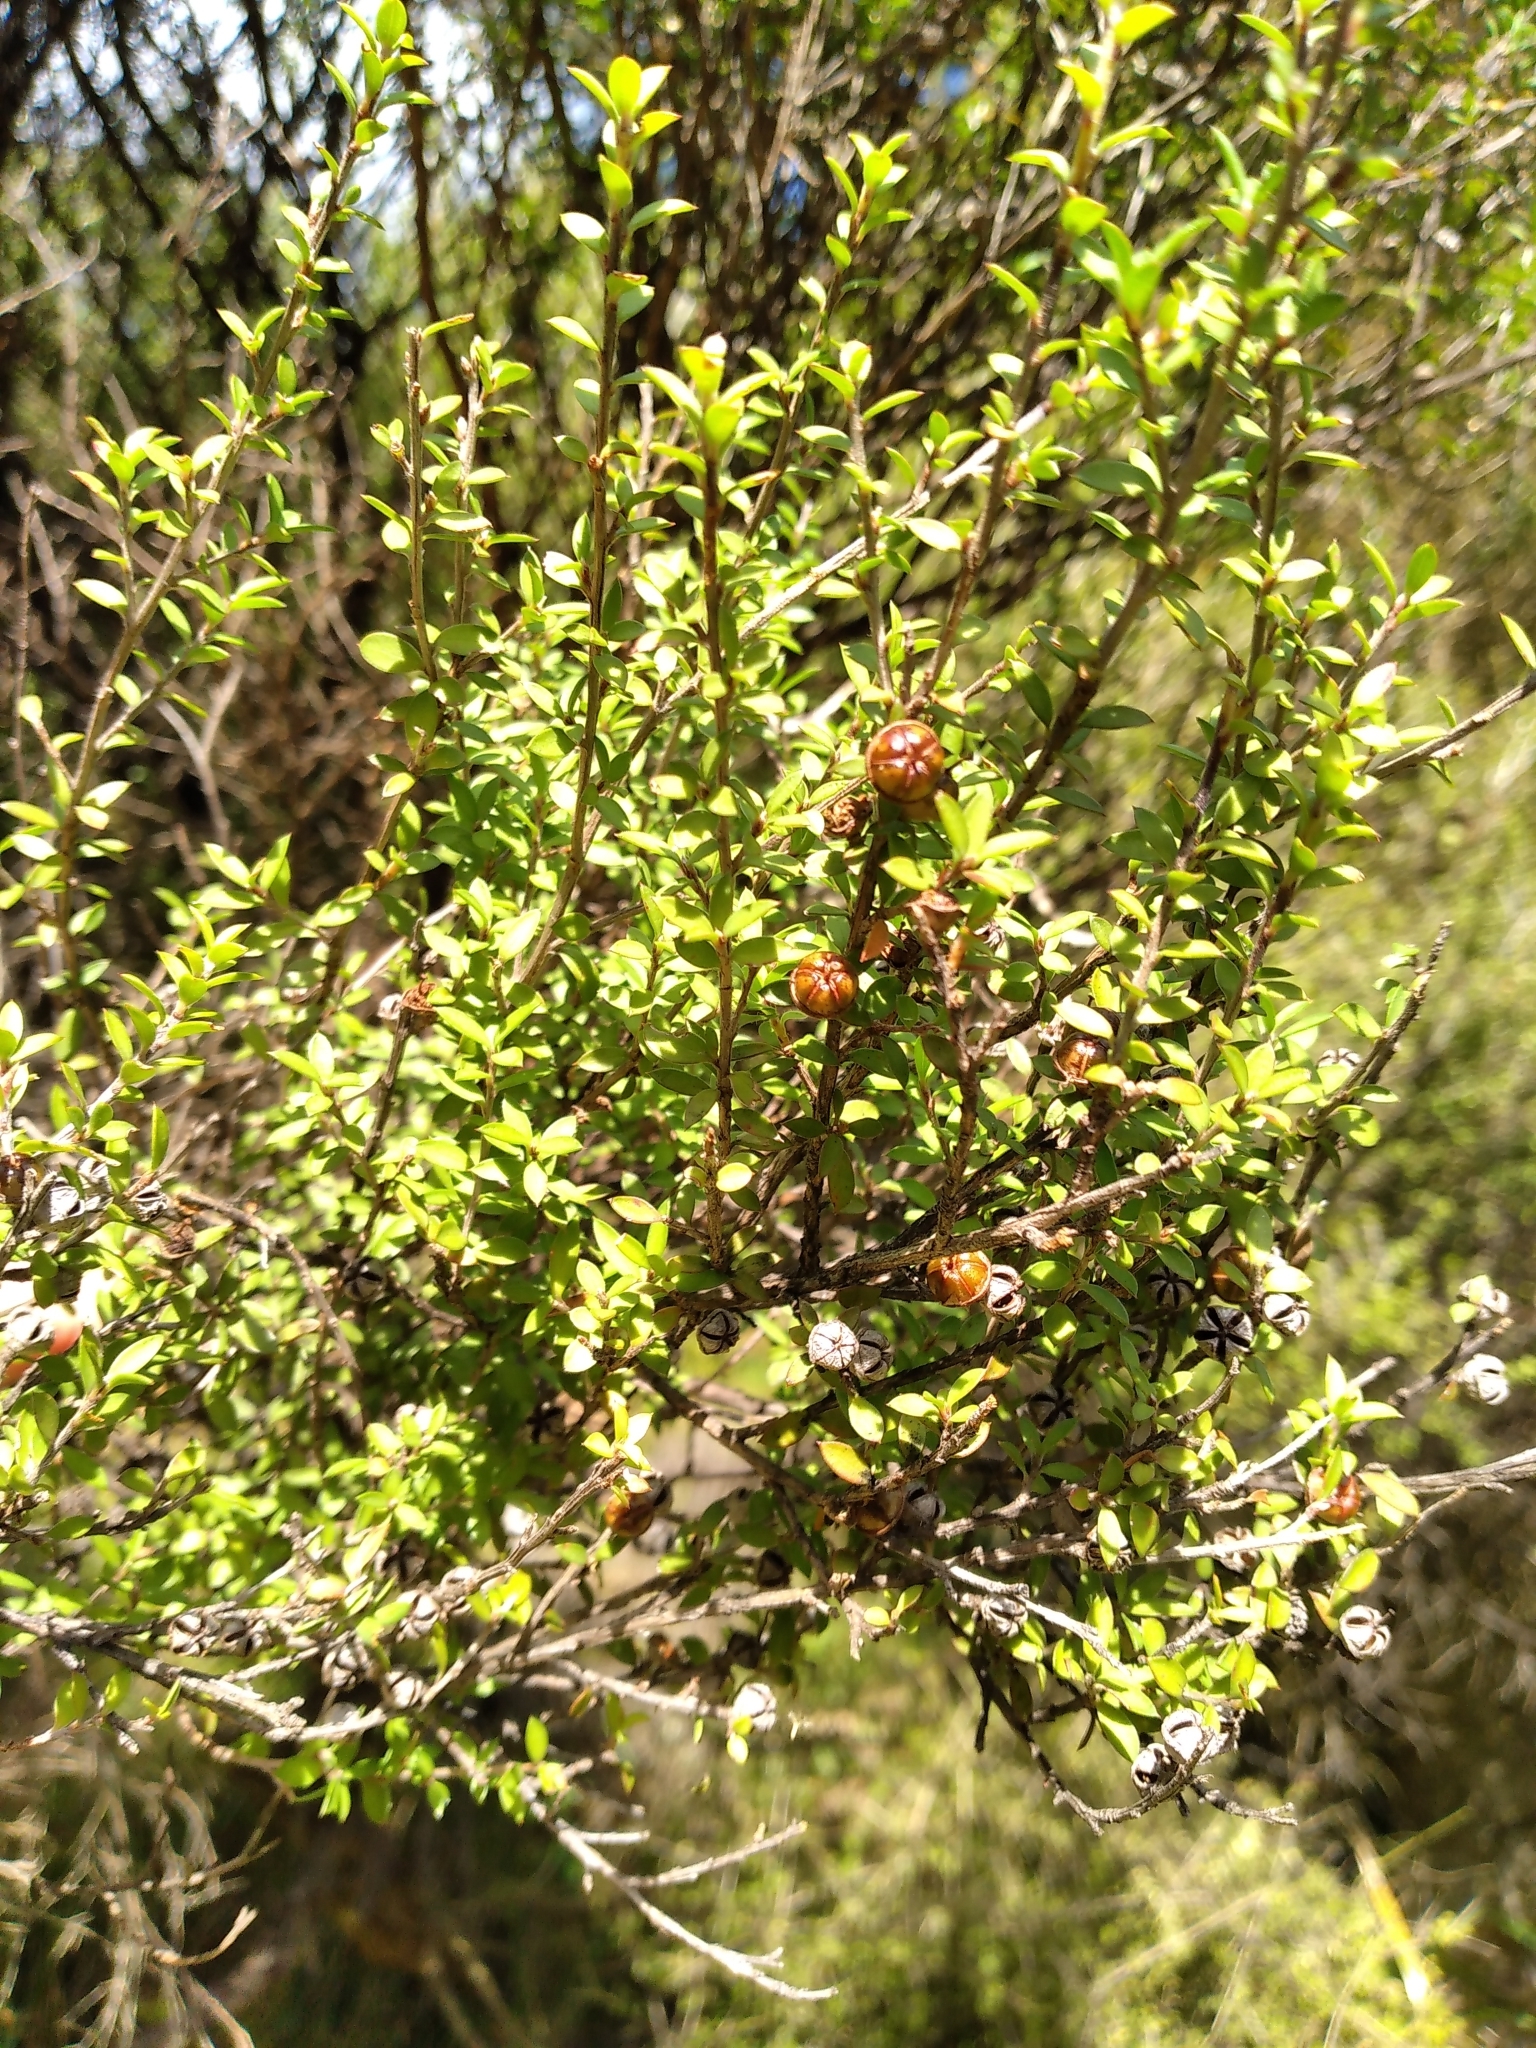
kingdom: Plantae
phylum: Tracheophyta
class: Magnoliopsida
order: Myrtales
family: Myrtaceae
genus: Leptospermum
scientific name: Leptospermum scoparium
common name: Broom tea-tree
